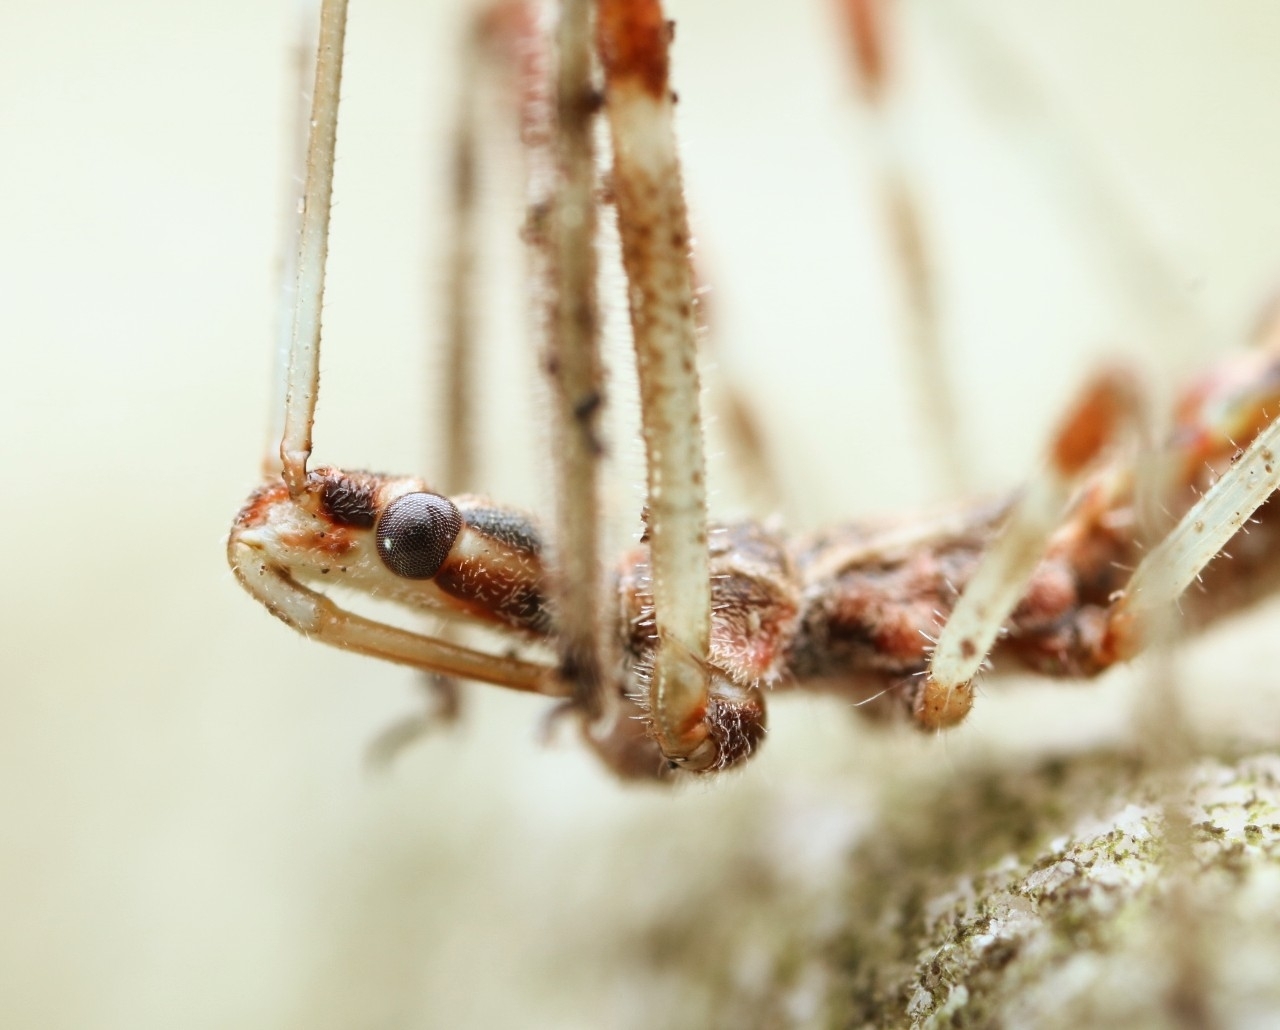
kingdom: Animalia
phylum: Arthropoda
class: Insecta
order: Hemiptera
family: Reduviidae
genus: Zelus
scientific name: Zelus tetracanthus
